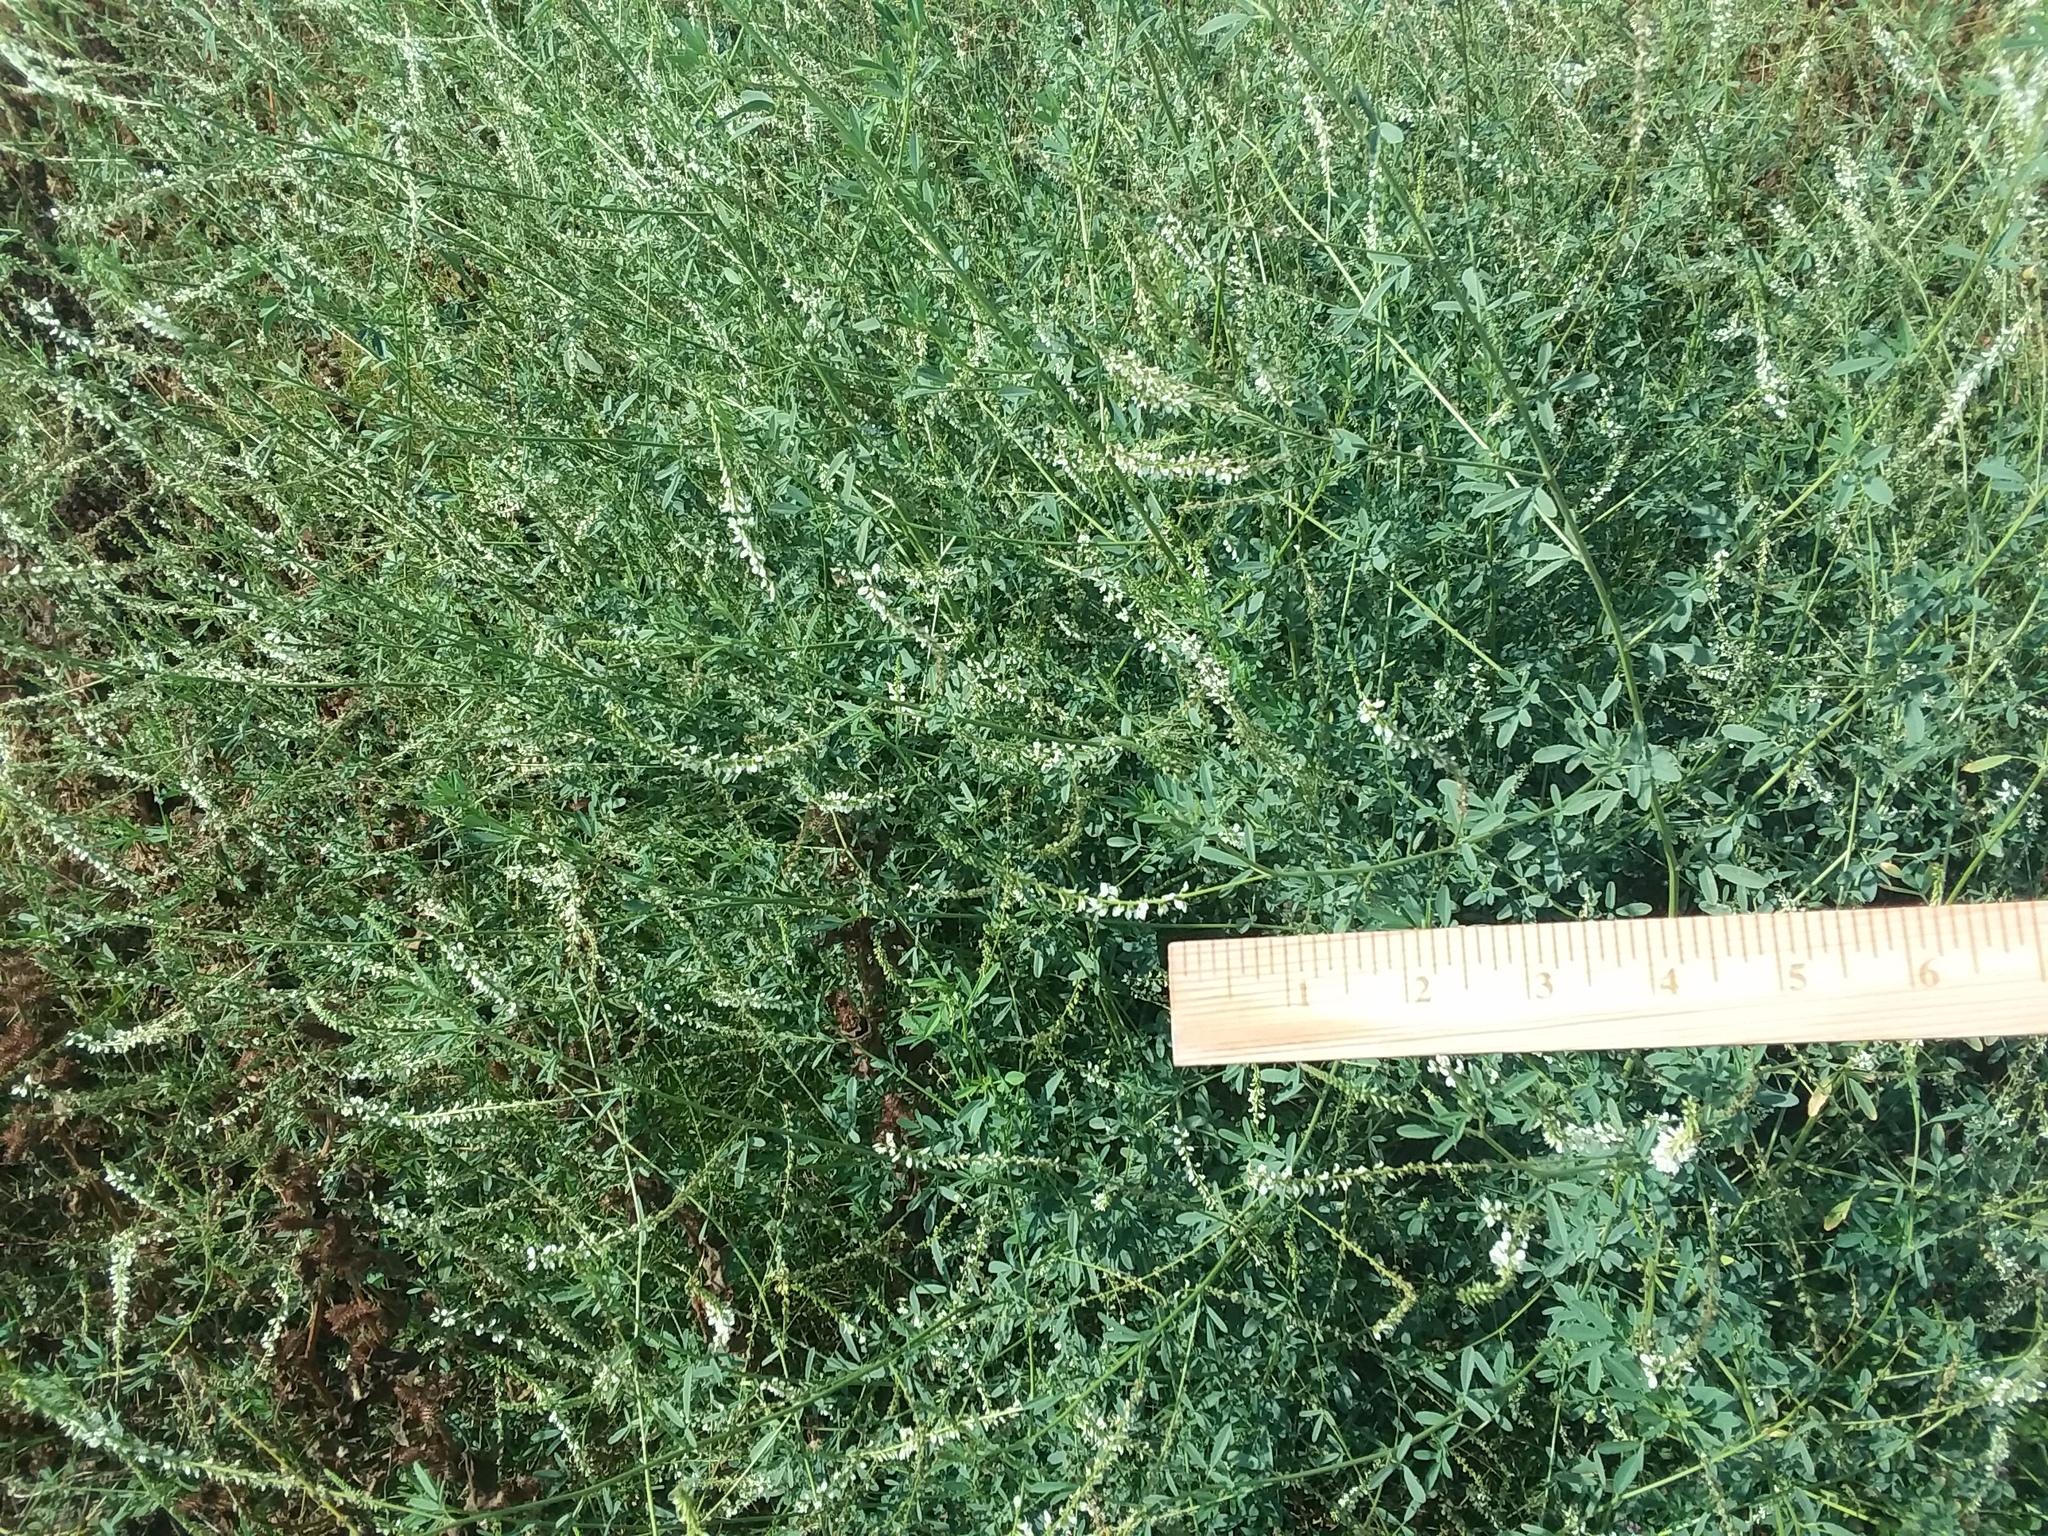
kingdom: Plantae
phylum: Tracheophyta
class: Magnoliopsida
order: Fabales
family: Fabaceae
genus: Melilotus
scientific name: Melilotus albus
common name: White melilot
